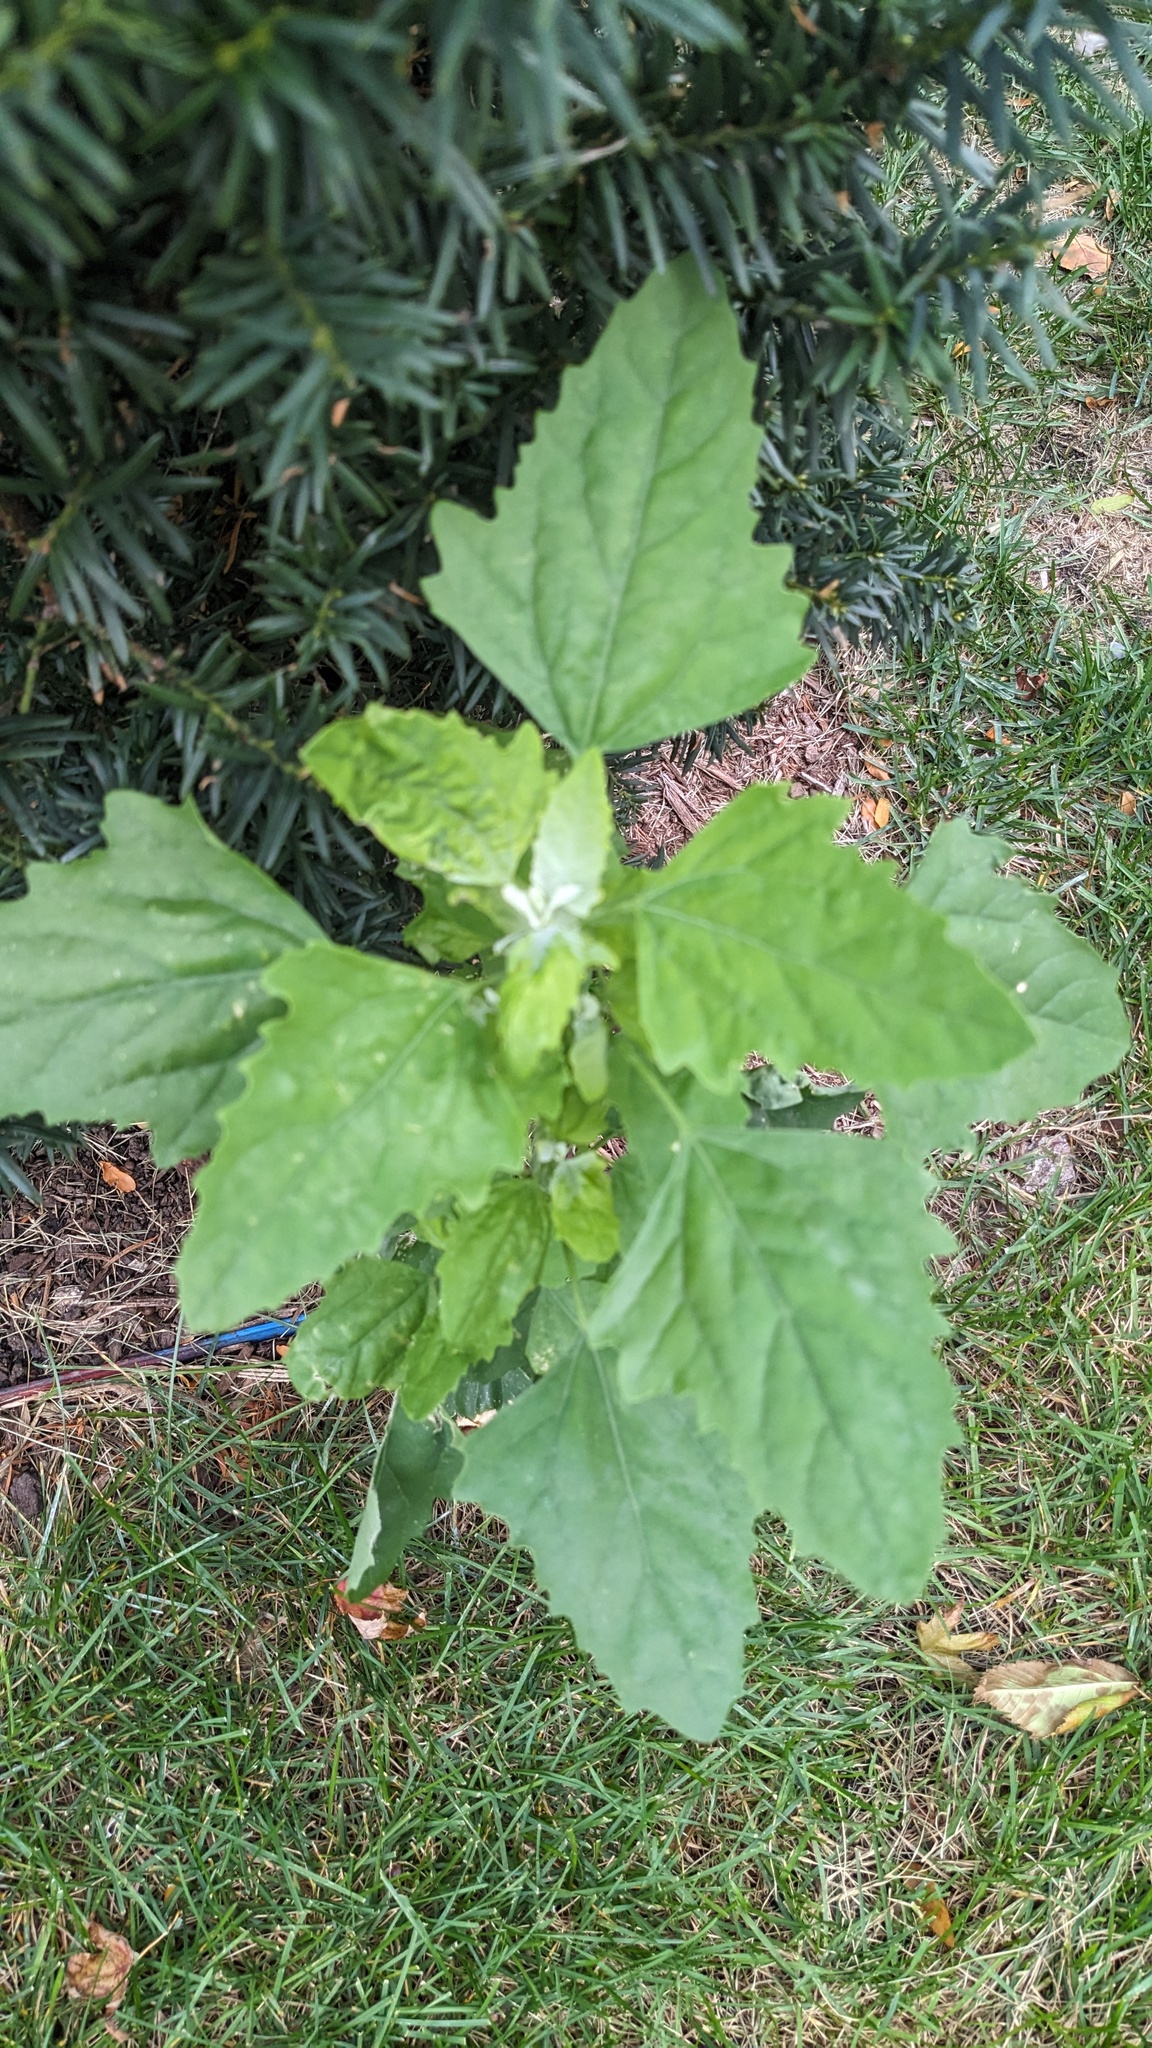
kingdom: Plantae
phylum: Tracheophyta
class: Magnoliopsida
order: Caryophyllales
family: Amaranthaceae
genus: Chenopodium
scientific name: Chenopodium album
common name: Fat-hen
